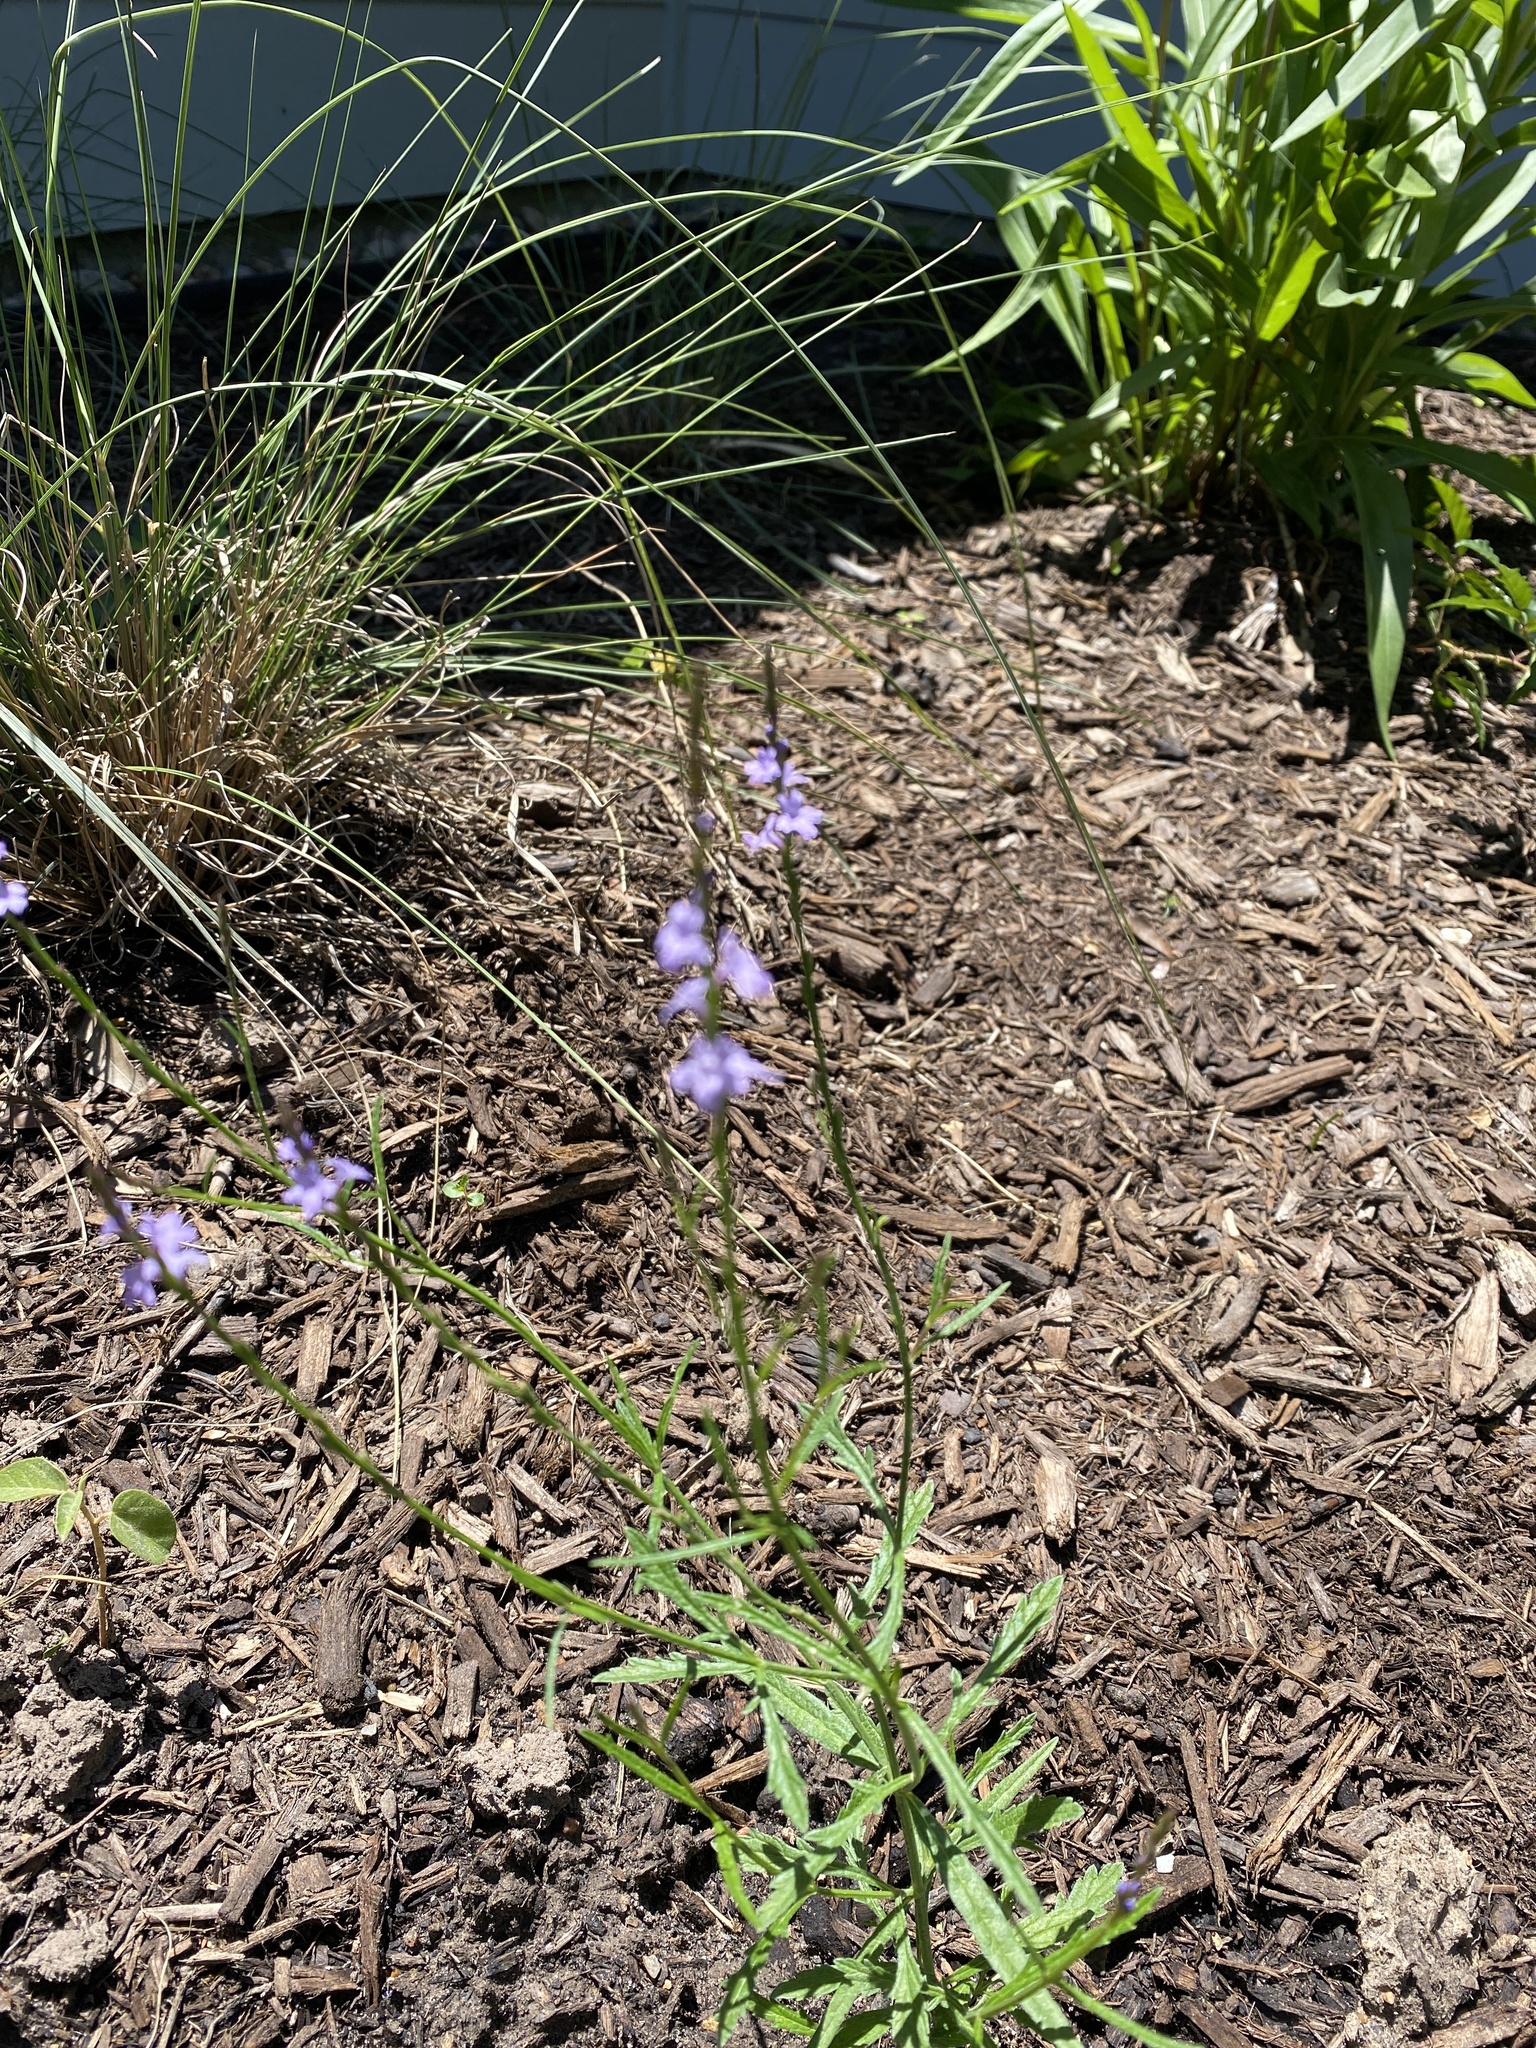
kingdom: Plantae
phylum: Tracheophyta
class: Magnoliopsida
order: Lamiales
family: Verbenaceae
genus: Verbena
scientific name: Verbena halei
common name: Texas vervain
